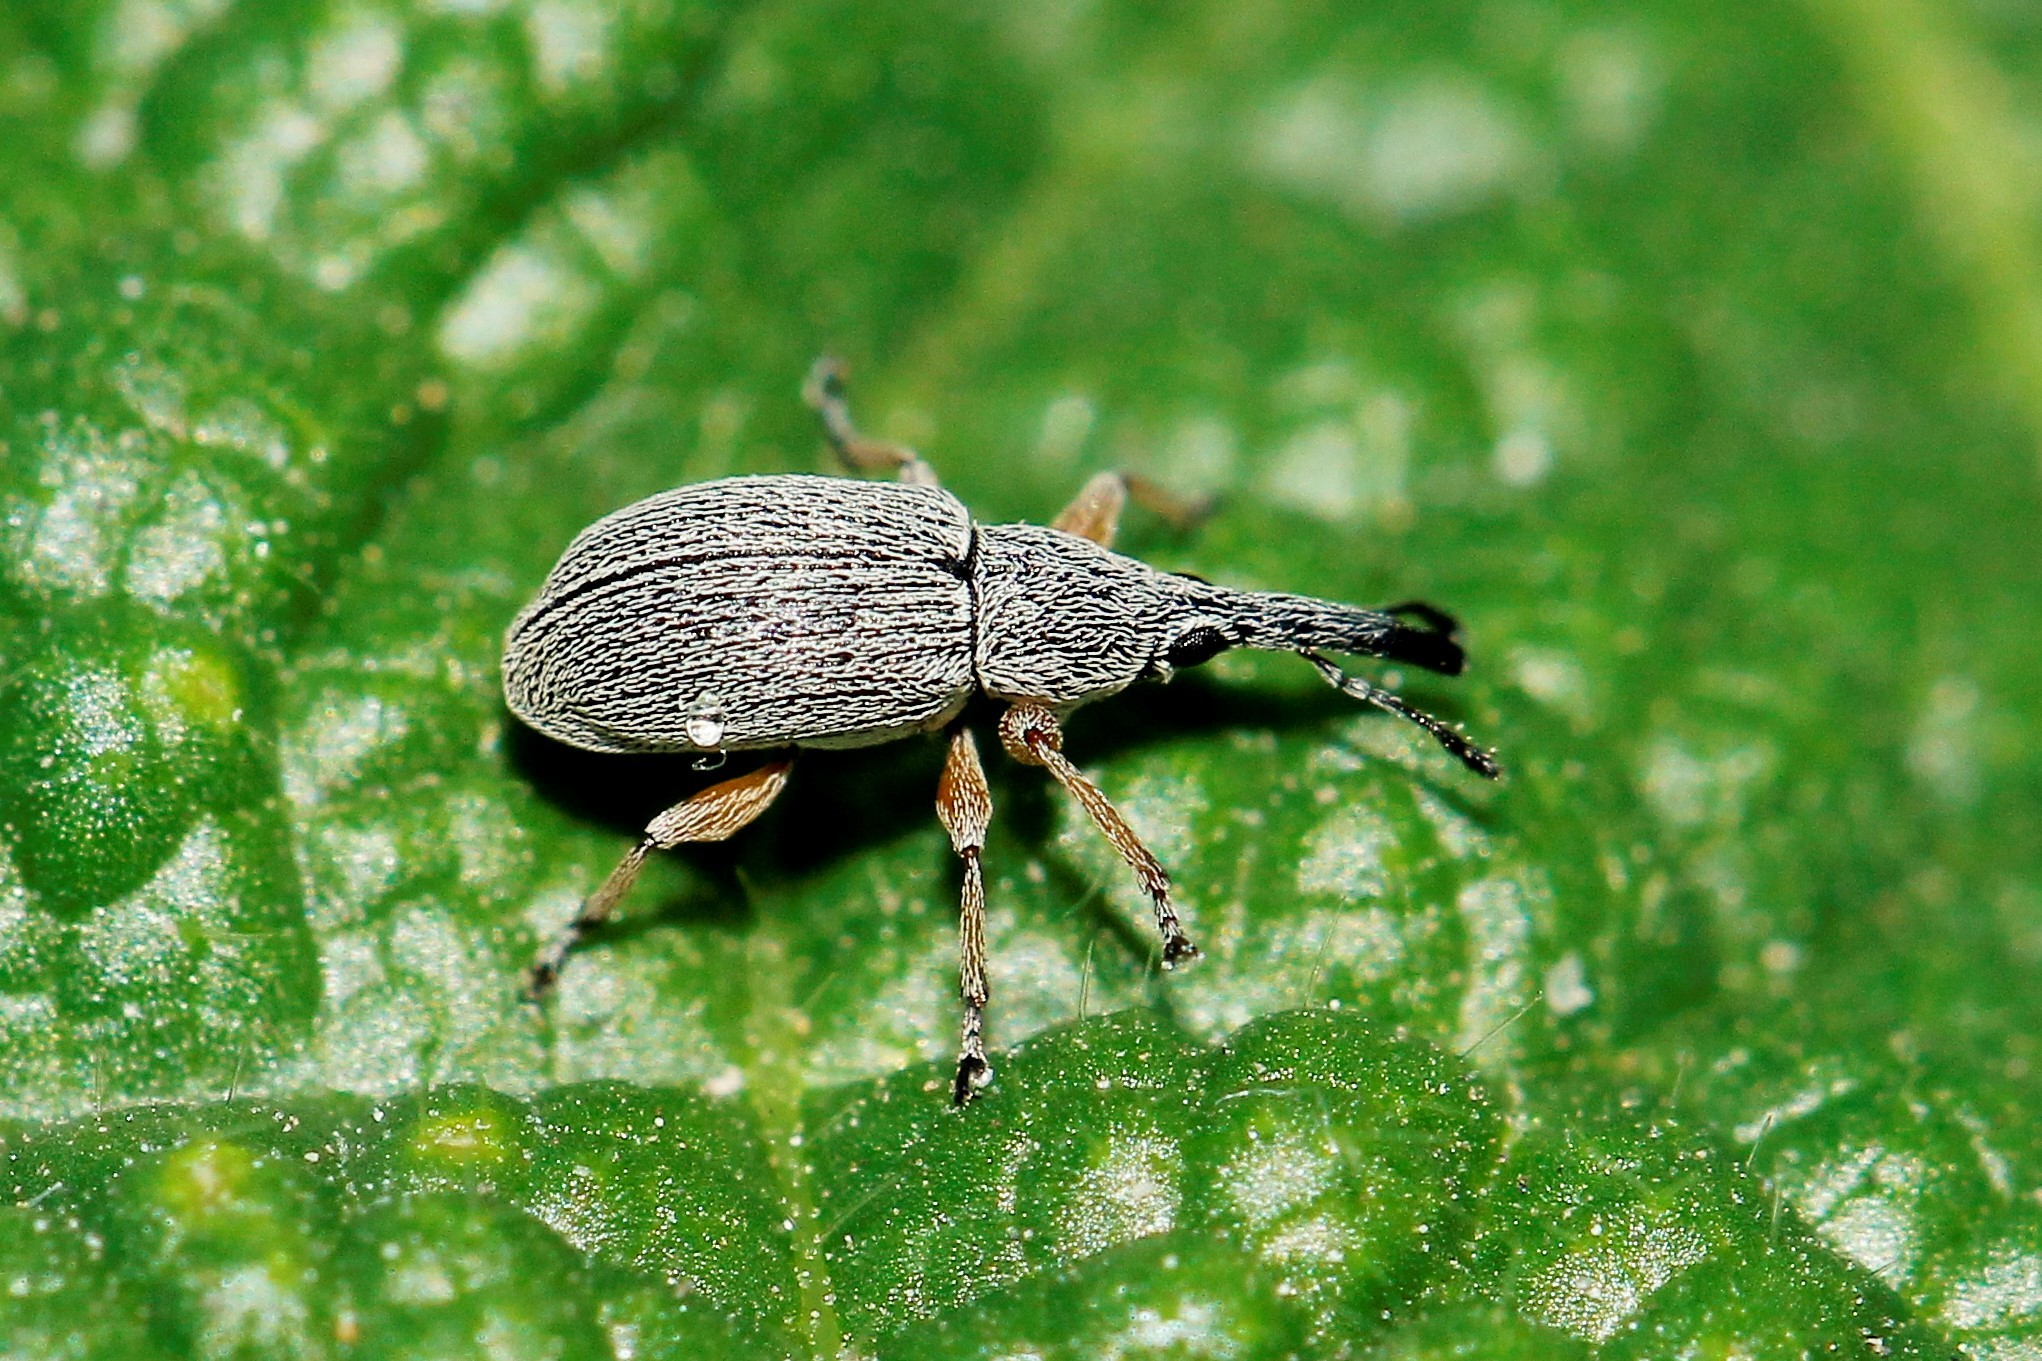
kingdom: Animalia
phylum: Arthropoda
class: Insecta
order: Coleoptera
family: Brentidae
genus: Rhopalapion
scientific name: Rhopalapion longirostre
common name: Hollyhock weevil
